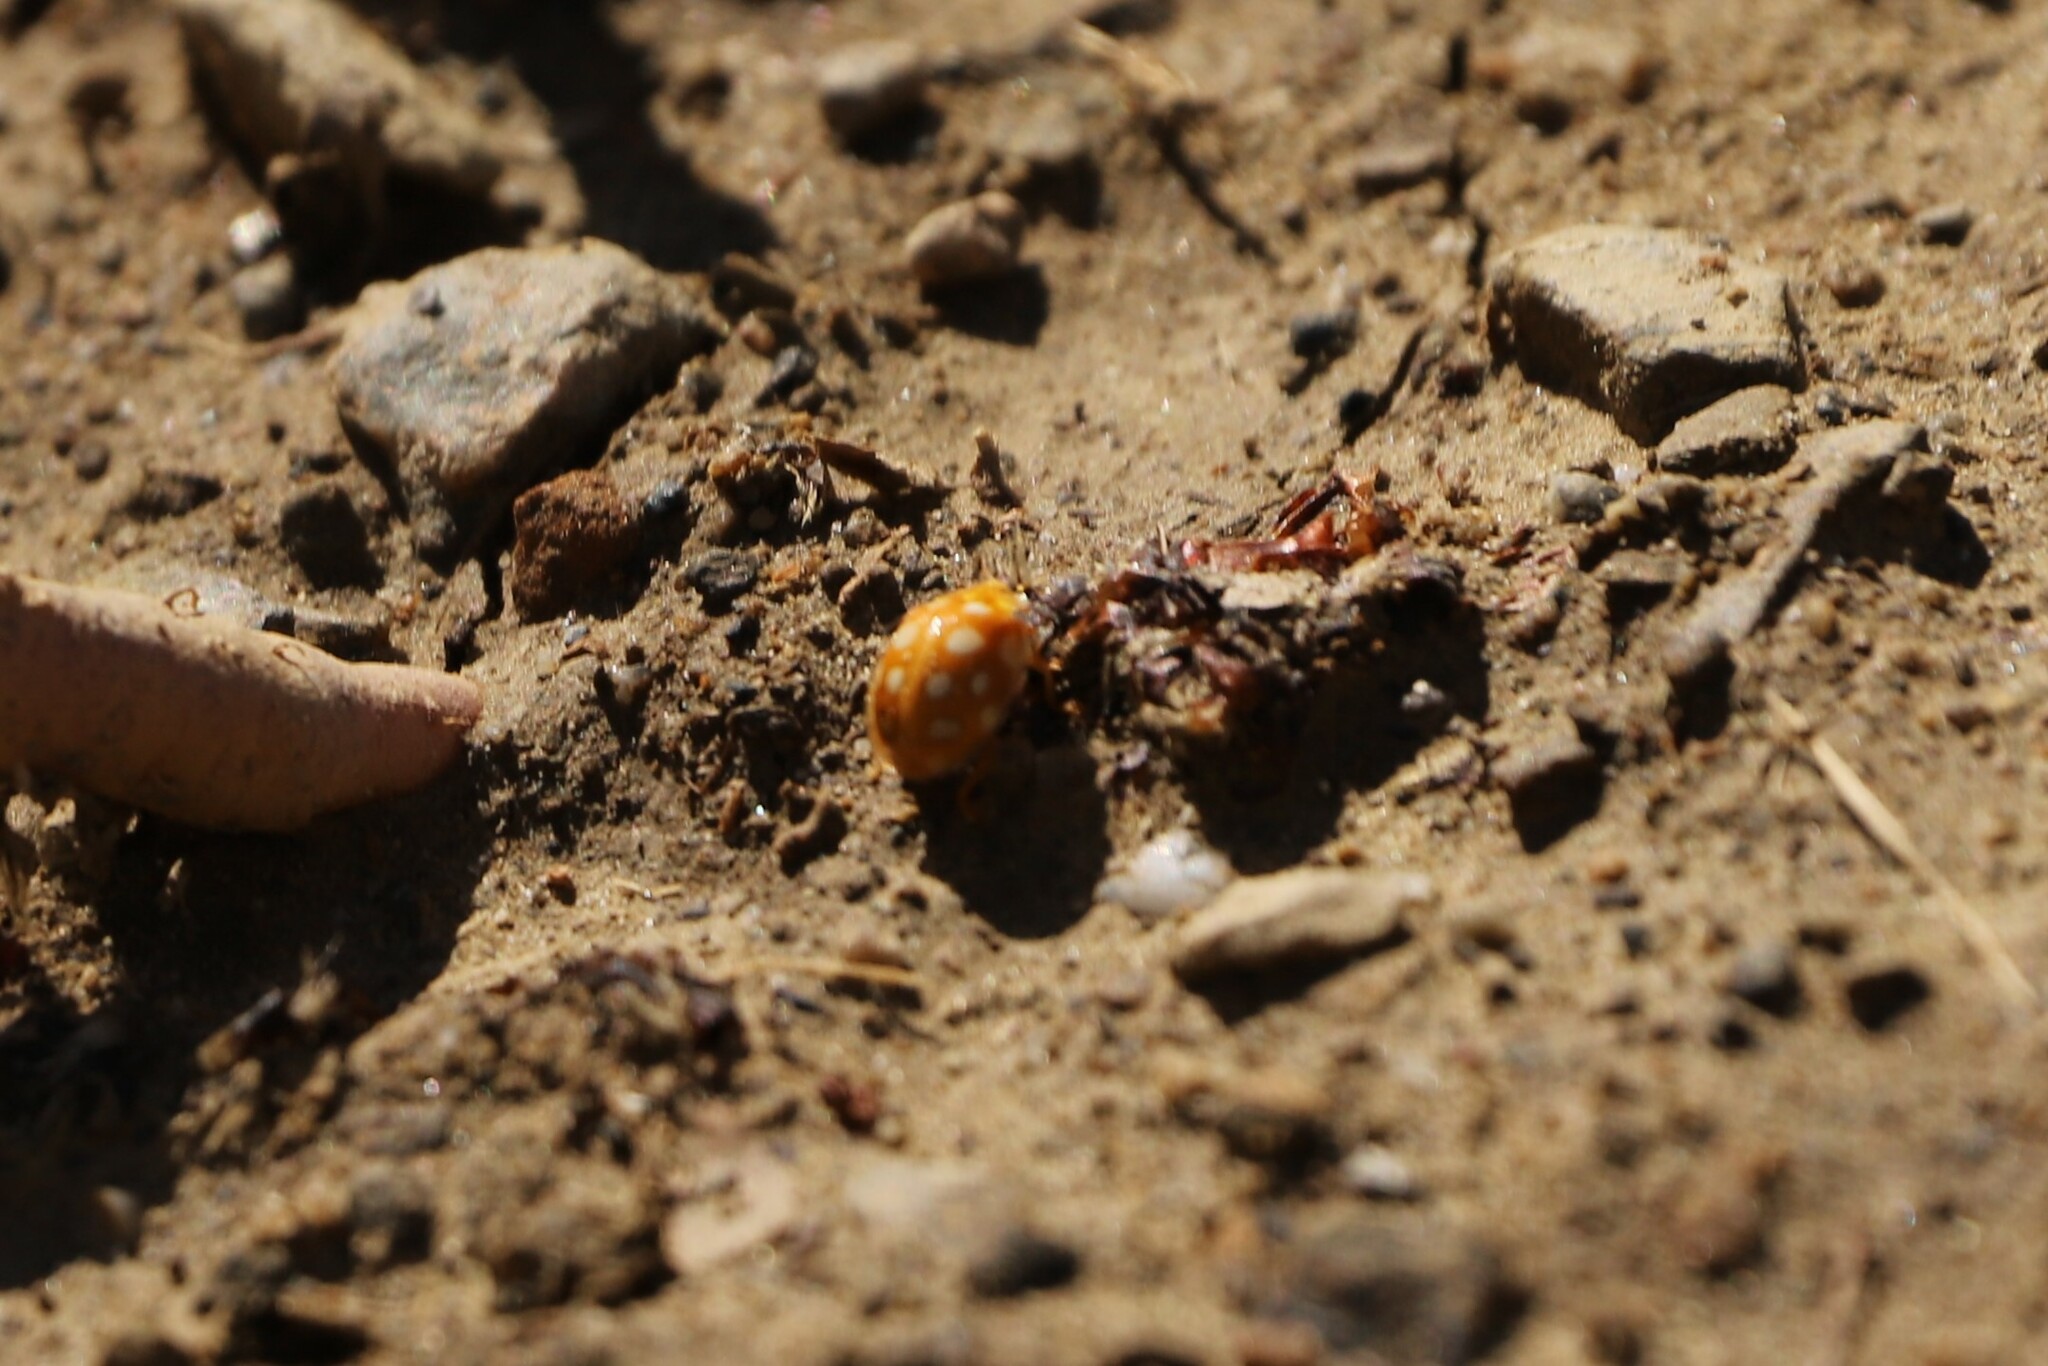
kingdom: Animalia
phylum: Arthropoda
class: Insecta
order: Coleoptera
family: Coccinellidae
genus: Halyzia
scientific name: Halyzia sedecimguttata
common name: Orange ladybird
